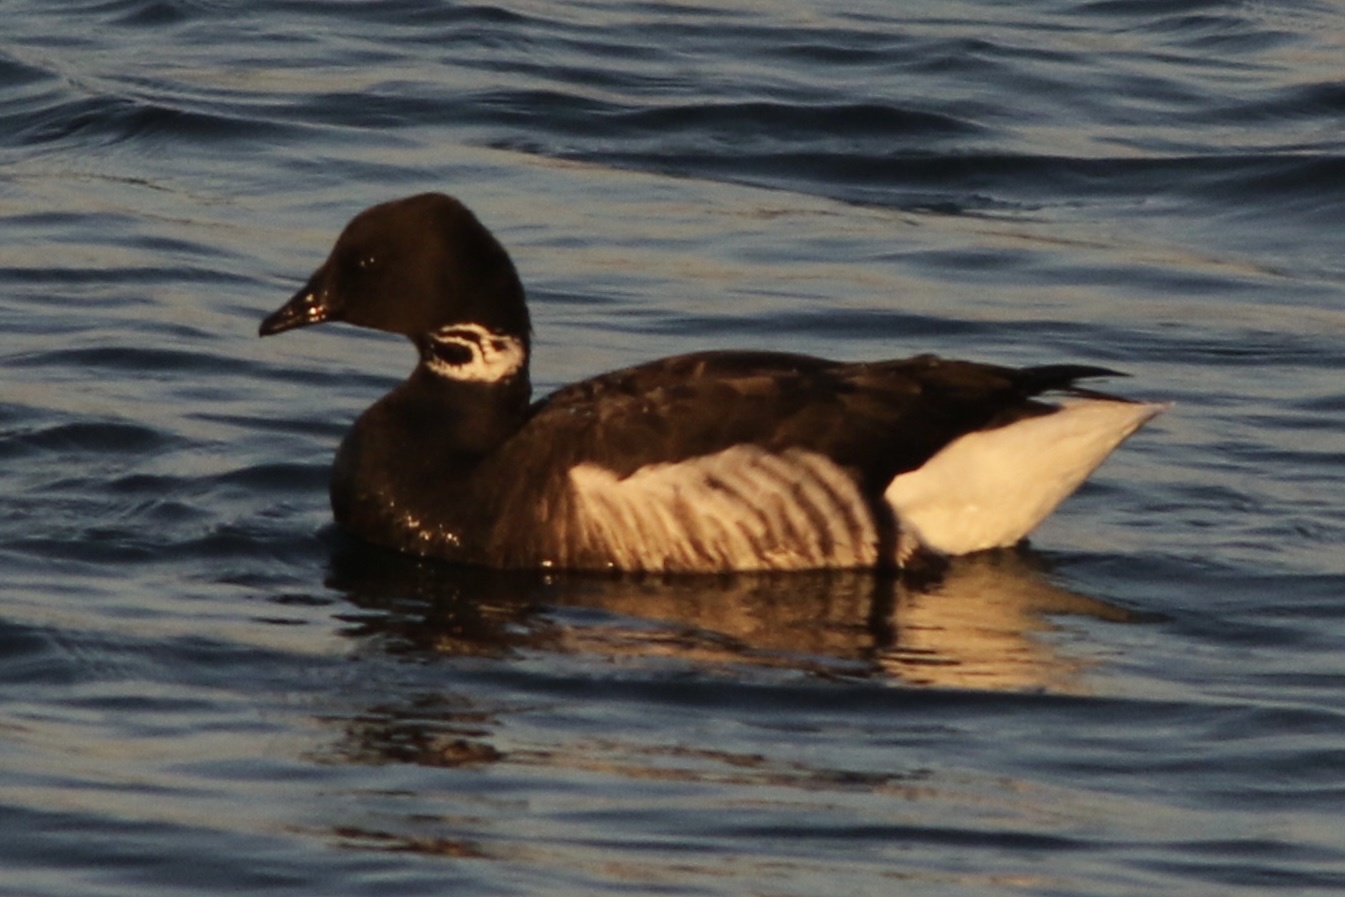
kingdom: Animalia
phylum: Chordata
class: Aves
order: Anseriformes
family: Anatidae
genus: Branta
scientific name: Branta bernicla
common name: Brant goose
